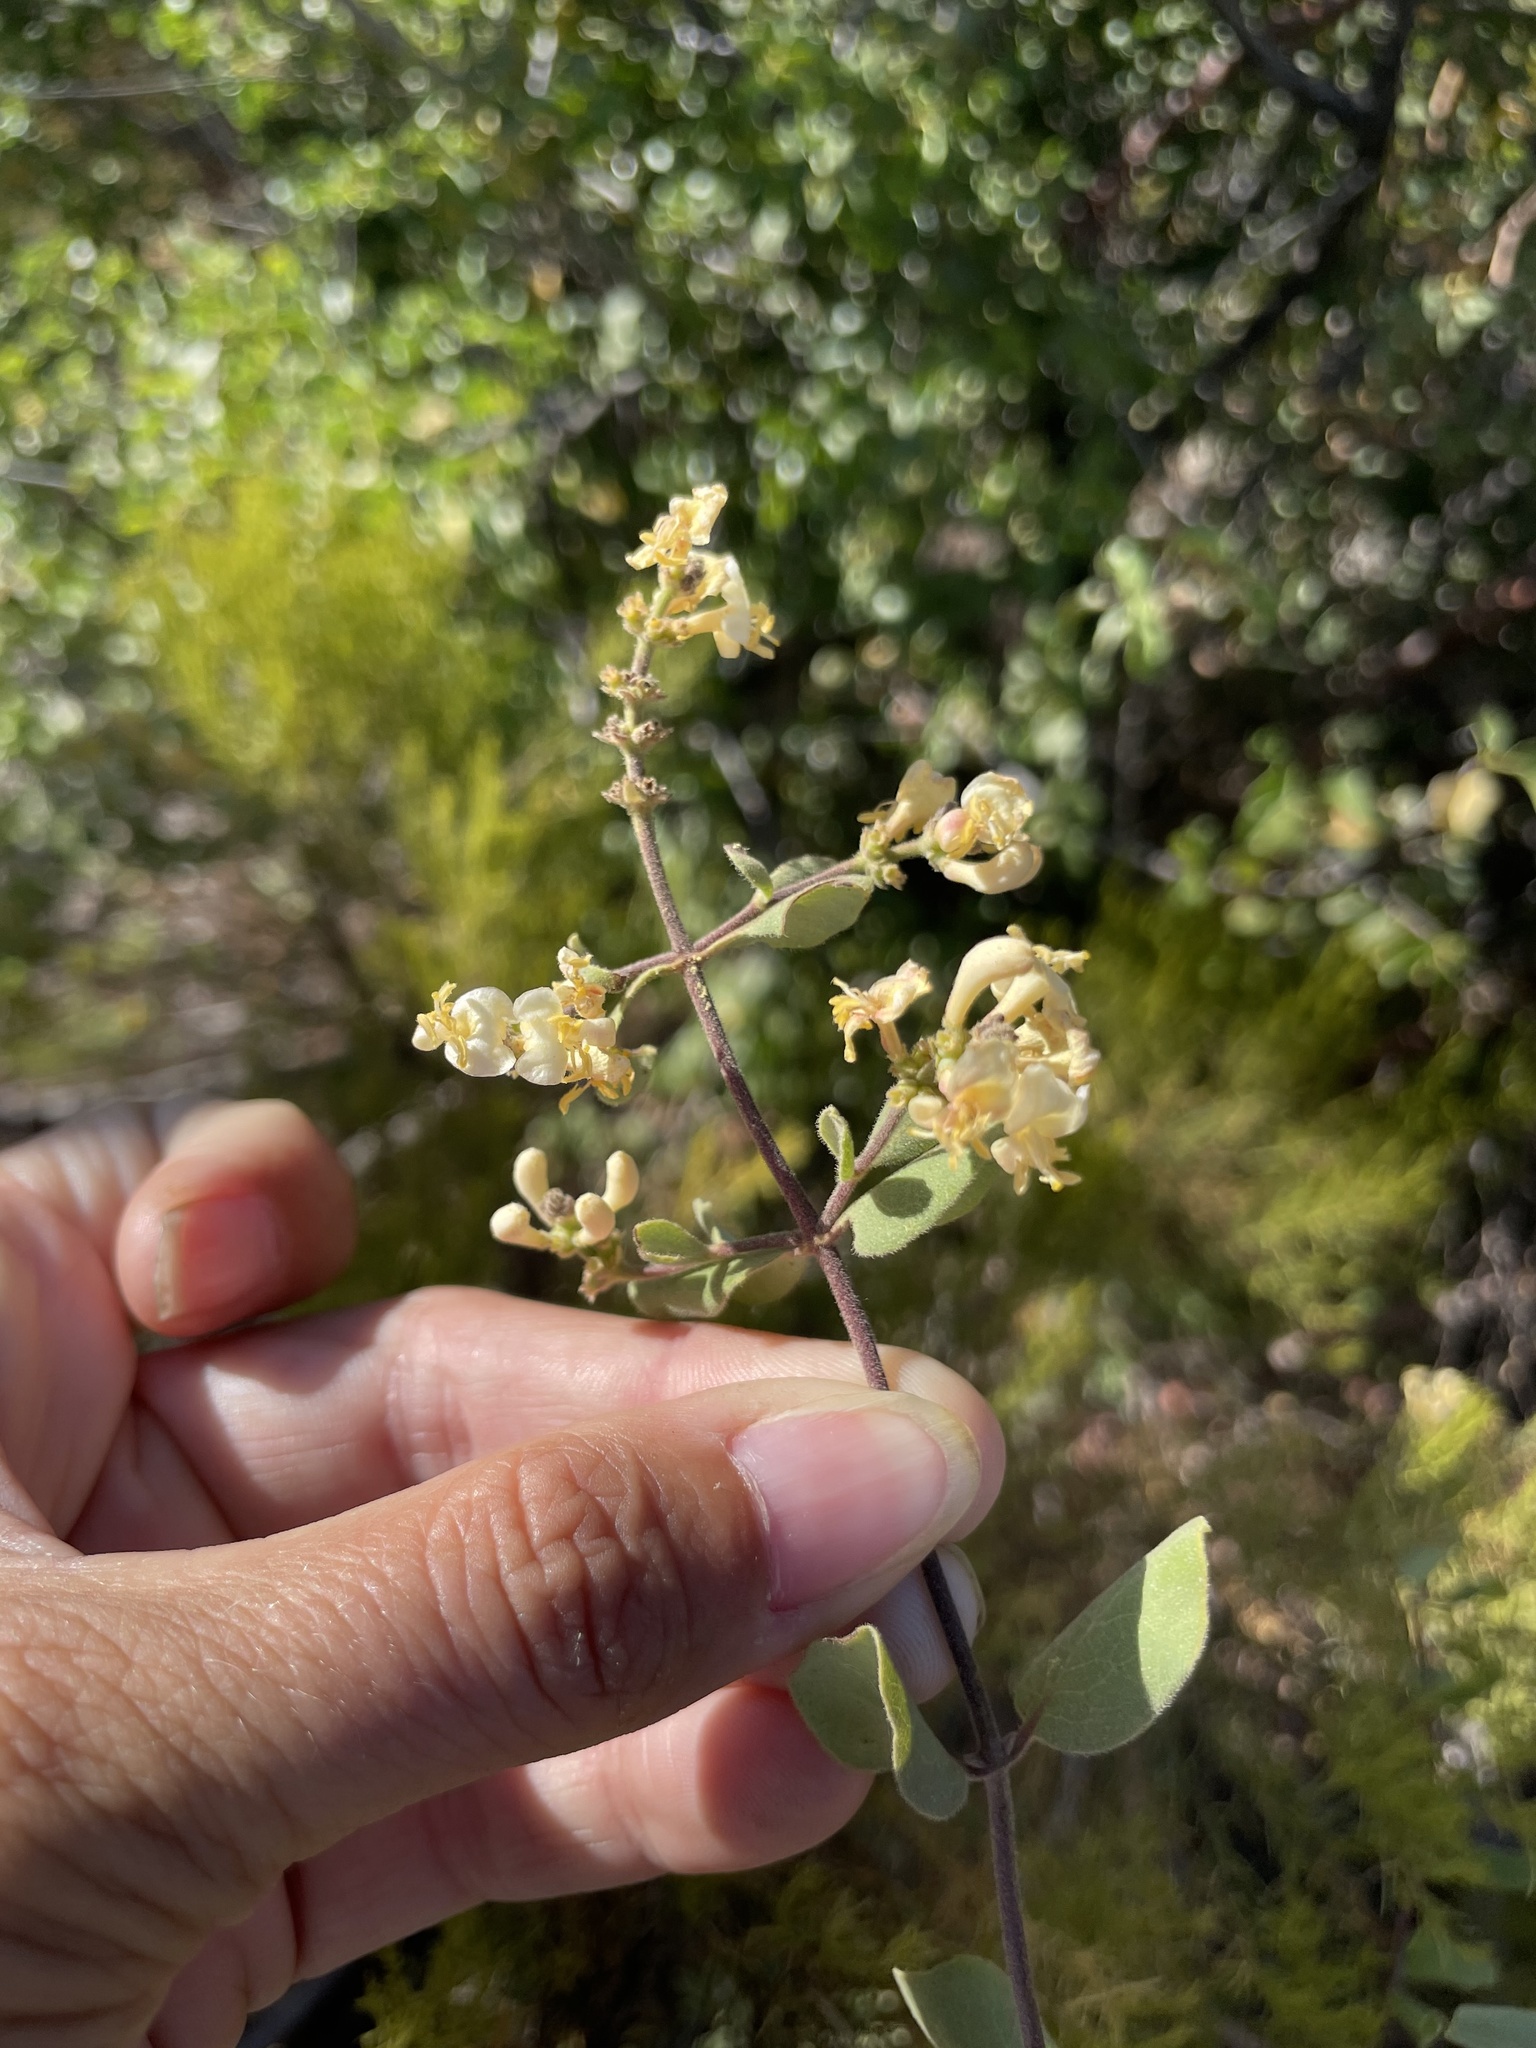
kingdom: Plantae
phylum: Tracheophyta
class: Magnoliopsida
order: Dipsacales
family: Caprifoliaceae
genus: Lonicera
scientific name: Lonicera subspicata
